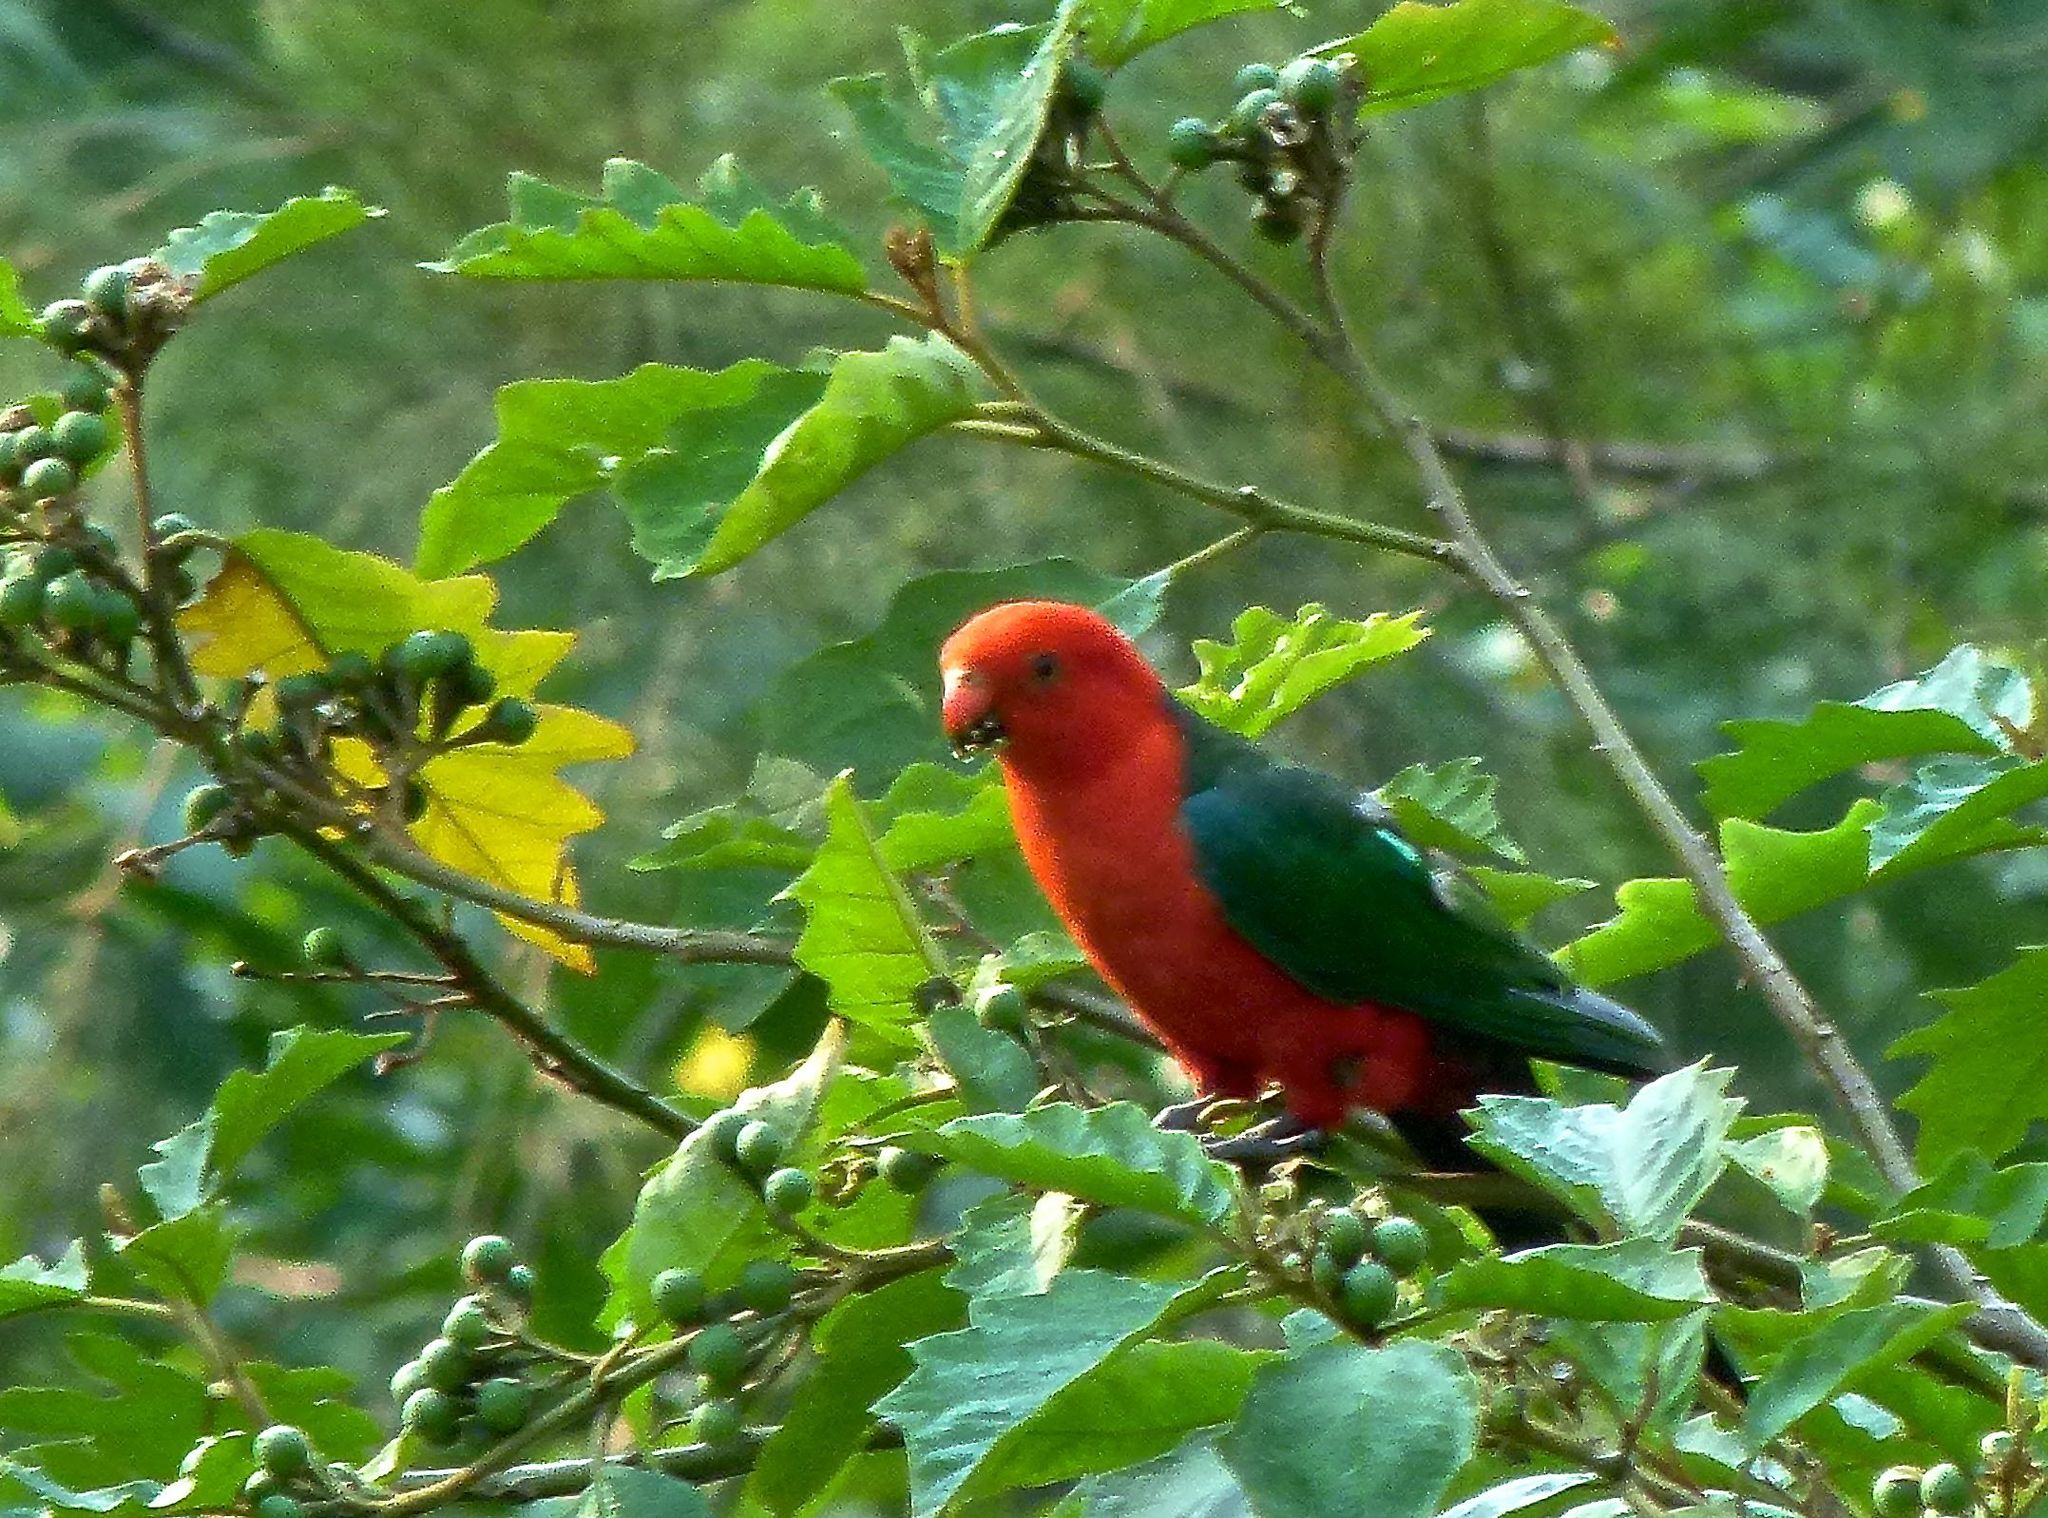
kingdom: Animalia
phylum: Chordata
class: Aves
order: Psittaciformes
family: Psittacidae
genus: Alisterus
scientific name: Alisterus scapularis
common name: Australian king parrot
